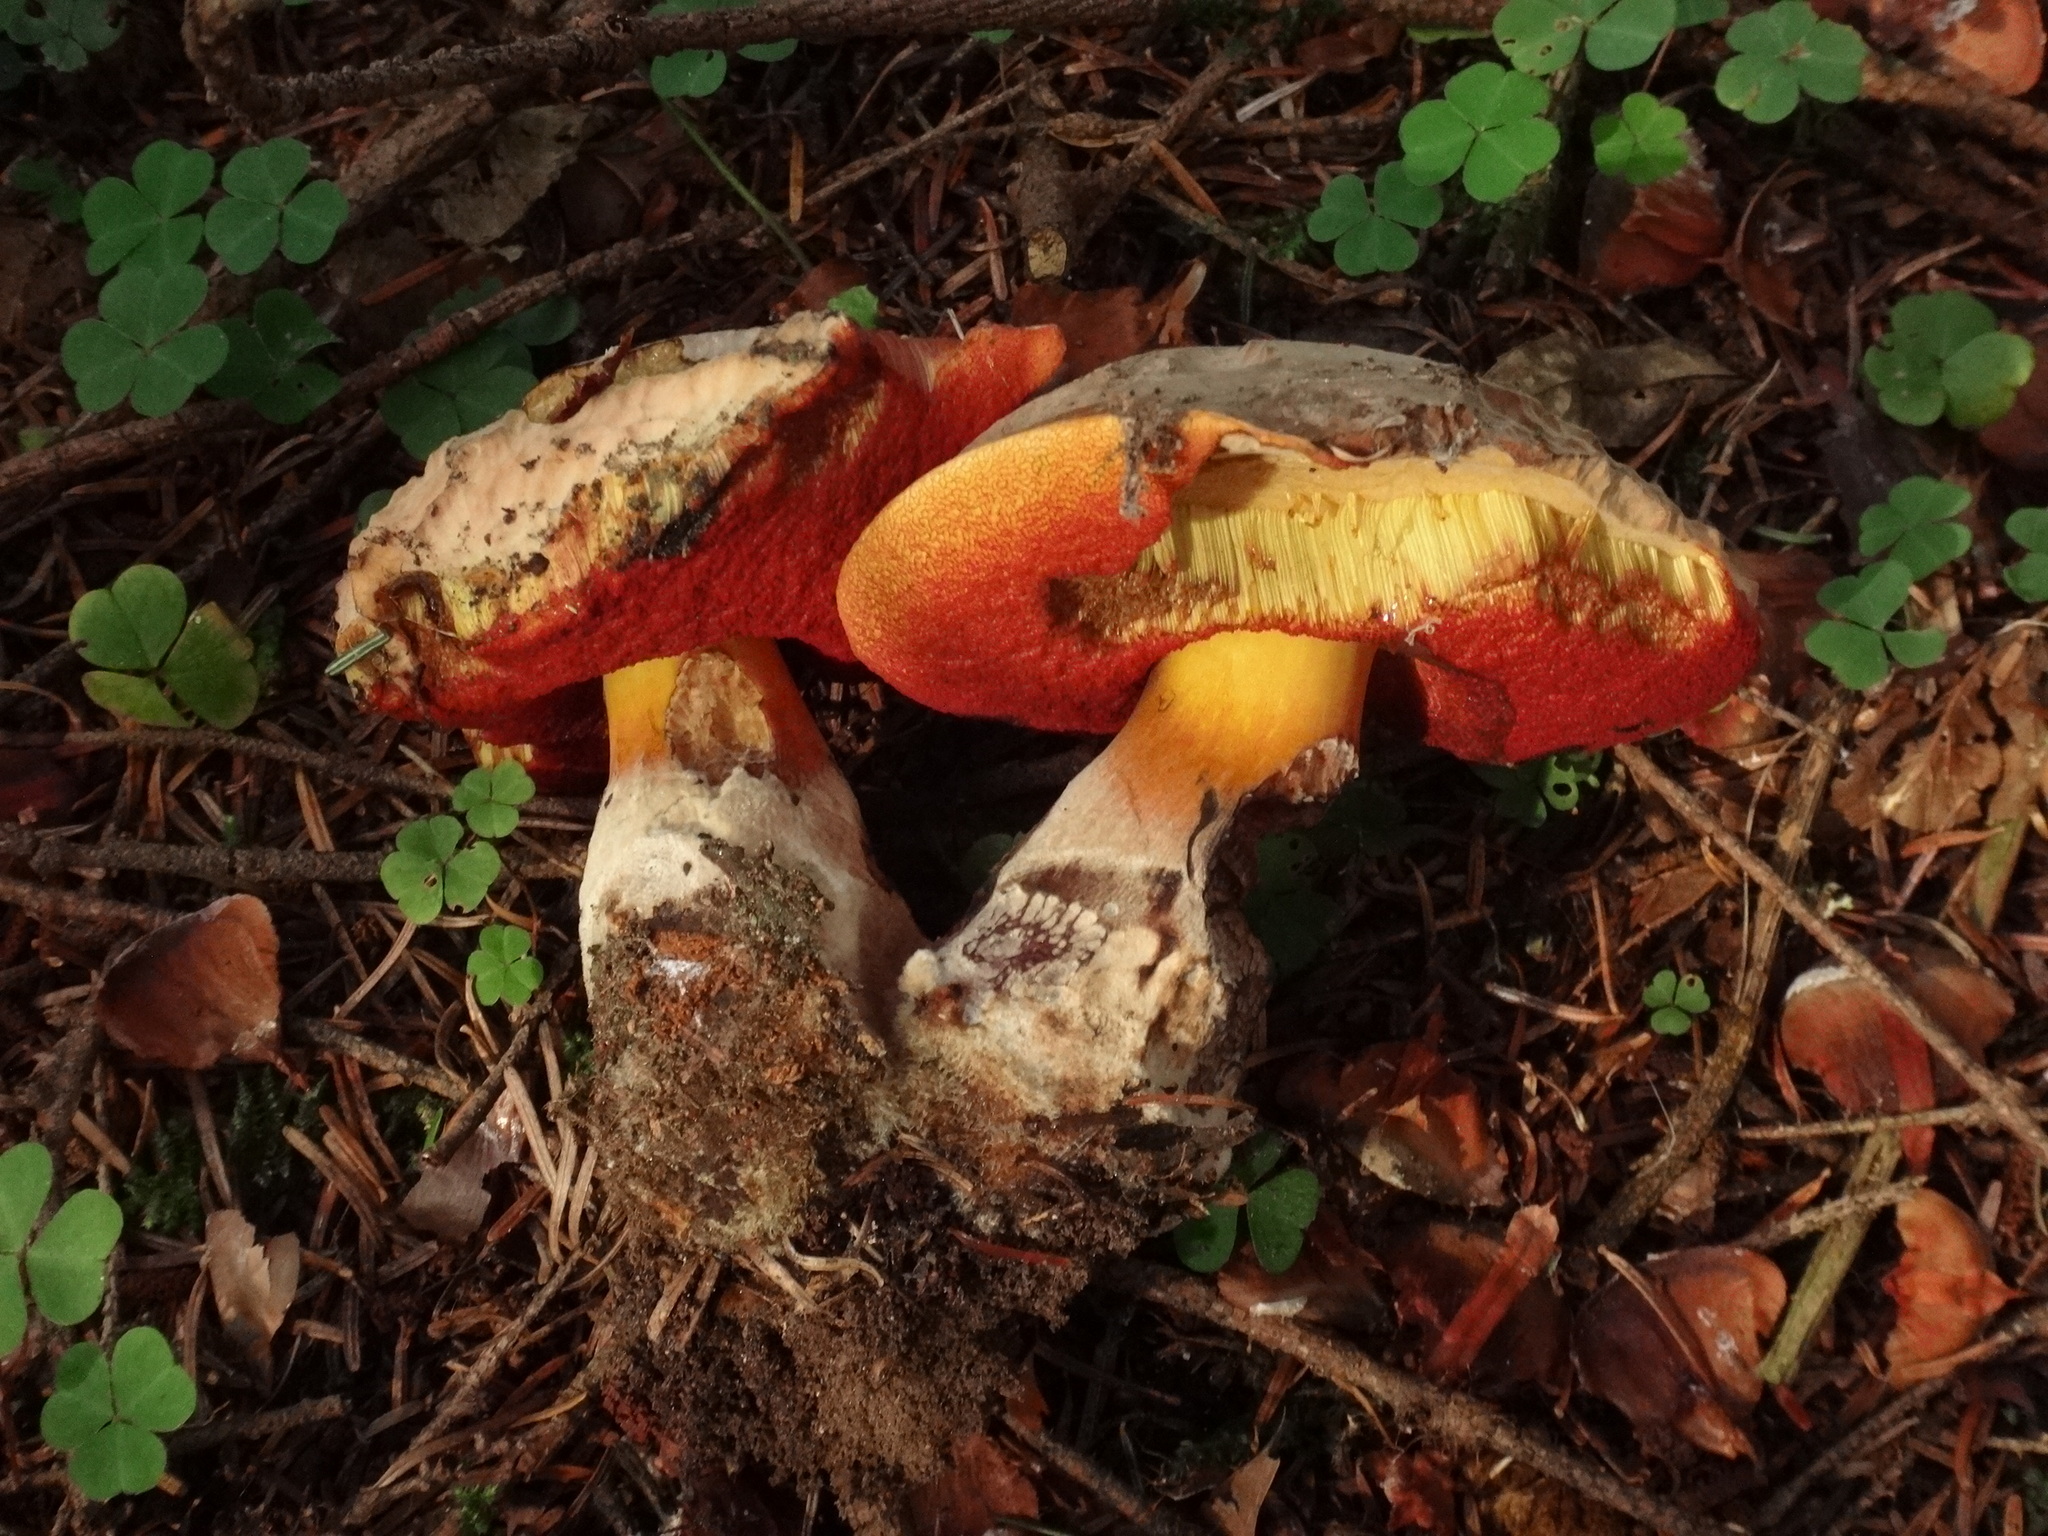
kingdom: Fungi
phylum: Basidiomycota
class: Agaricomycetes
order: Boletales
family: Boletaceae
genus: Neoboletus
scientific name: Neoboletus erythropus
